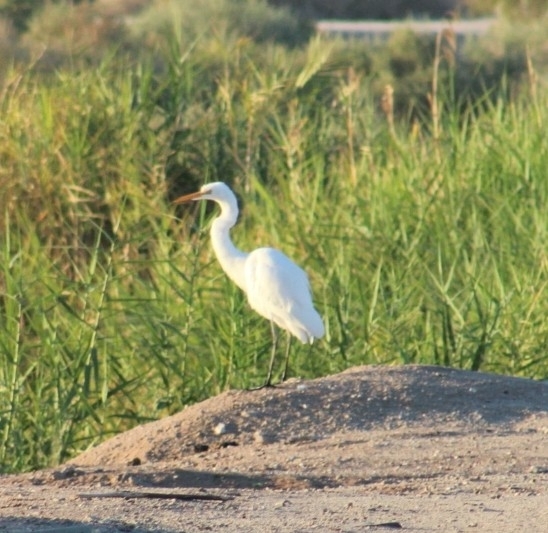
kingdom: Animalia
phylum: Chordata
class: Aves
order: Pelecaniformes
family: Ardeidae
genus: Ardea
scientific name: Ardea alba
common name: Great egret
